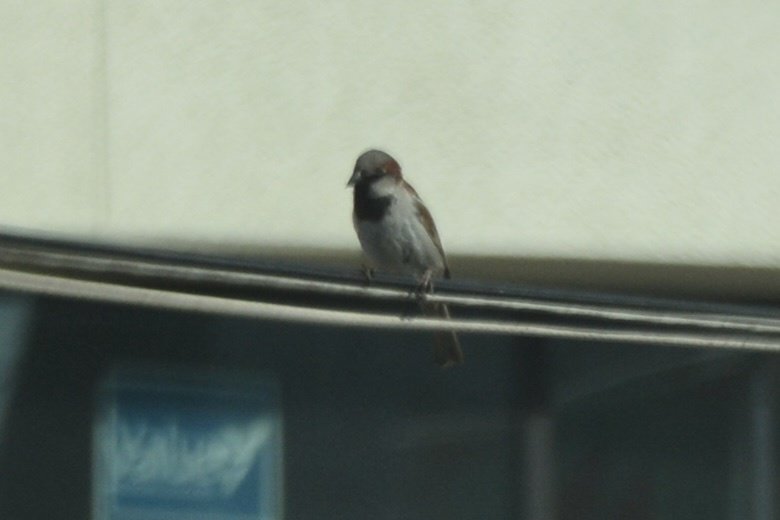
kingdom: Animalia
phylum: Chordata
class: Aves
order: Passeriformes
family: Passeridae
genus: Passer
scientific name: Passer domesticus
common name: House sparrow
